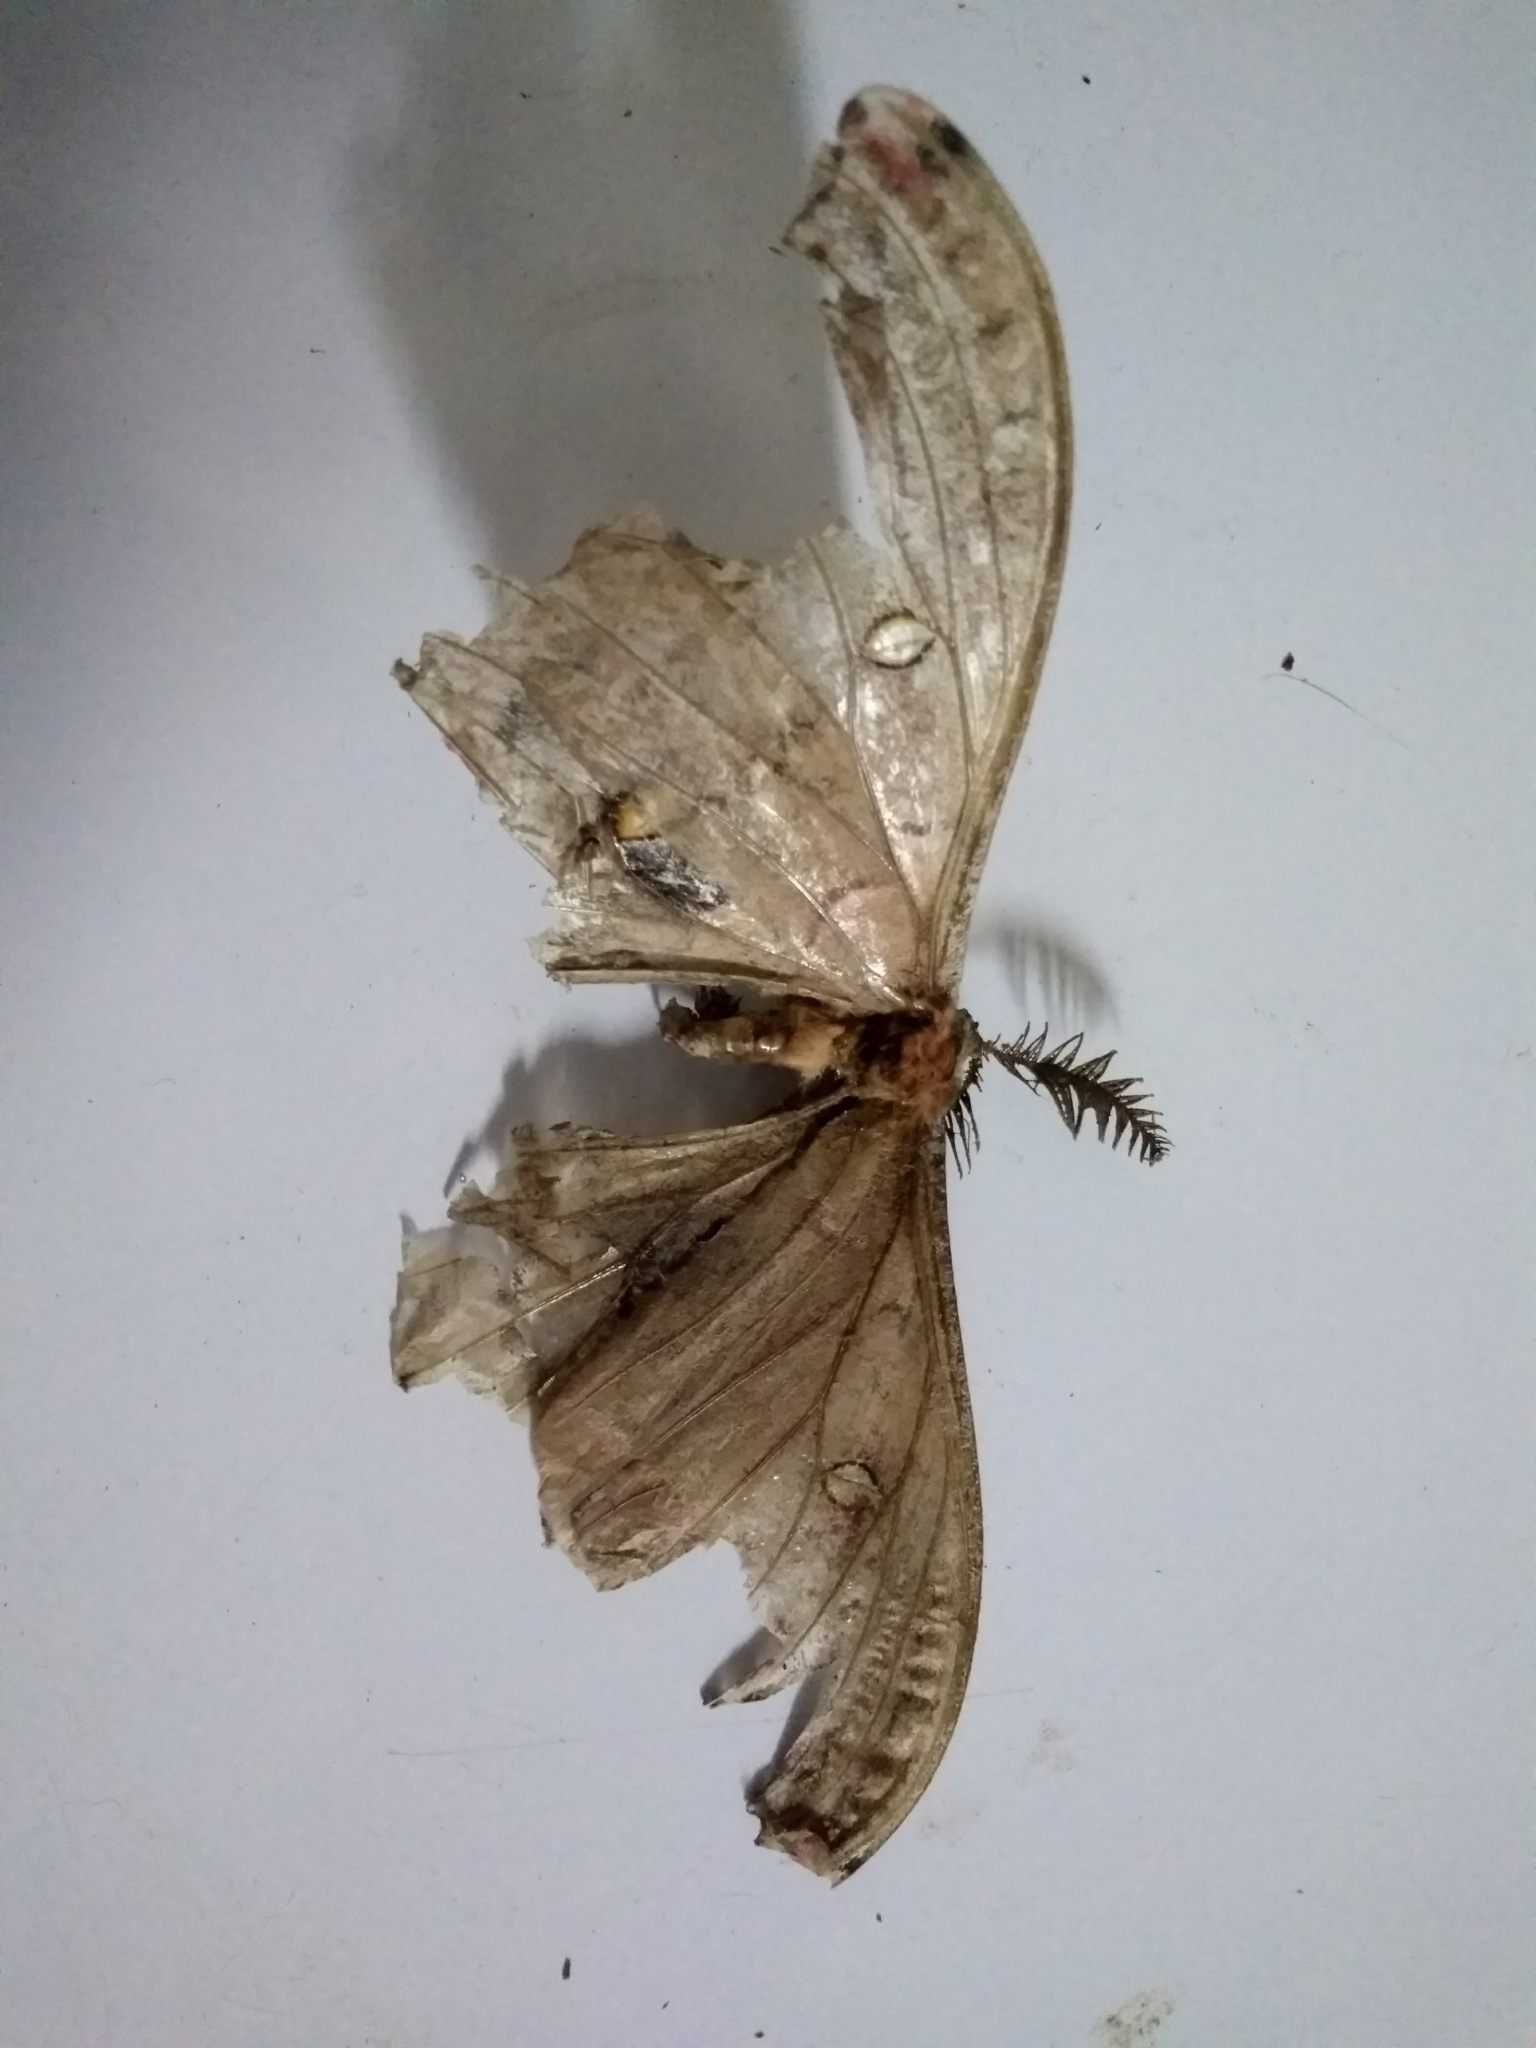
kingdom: Animalia
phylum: Arthropoda
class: Insecta
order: Lepidoptera
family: Saturniidae
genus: Antheraea
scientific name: Antheraea polyphemus
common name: Polyphemus moth
